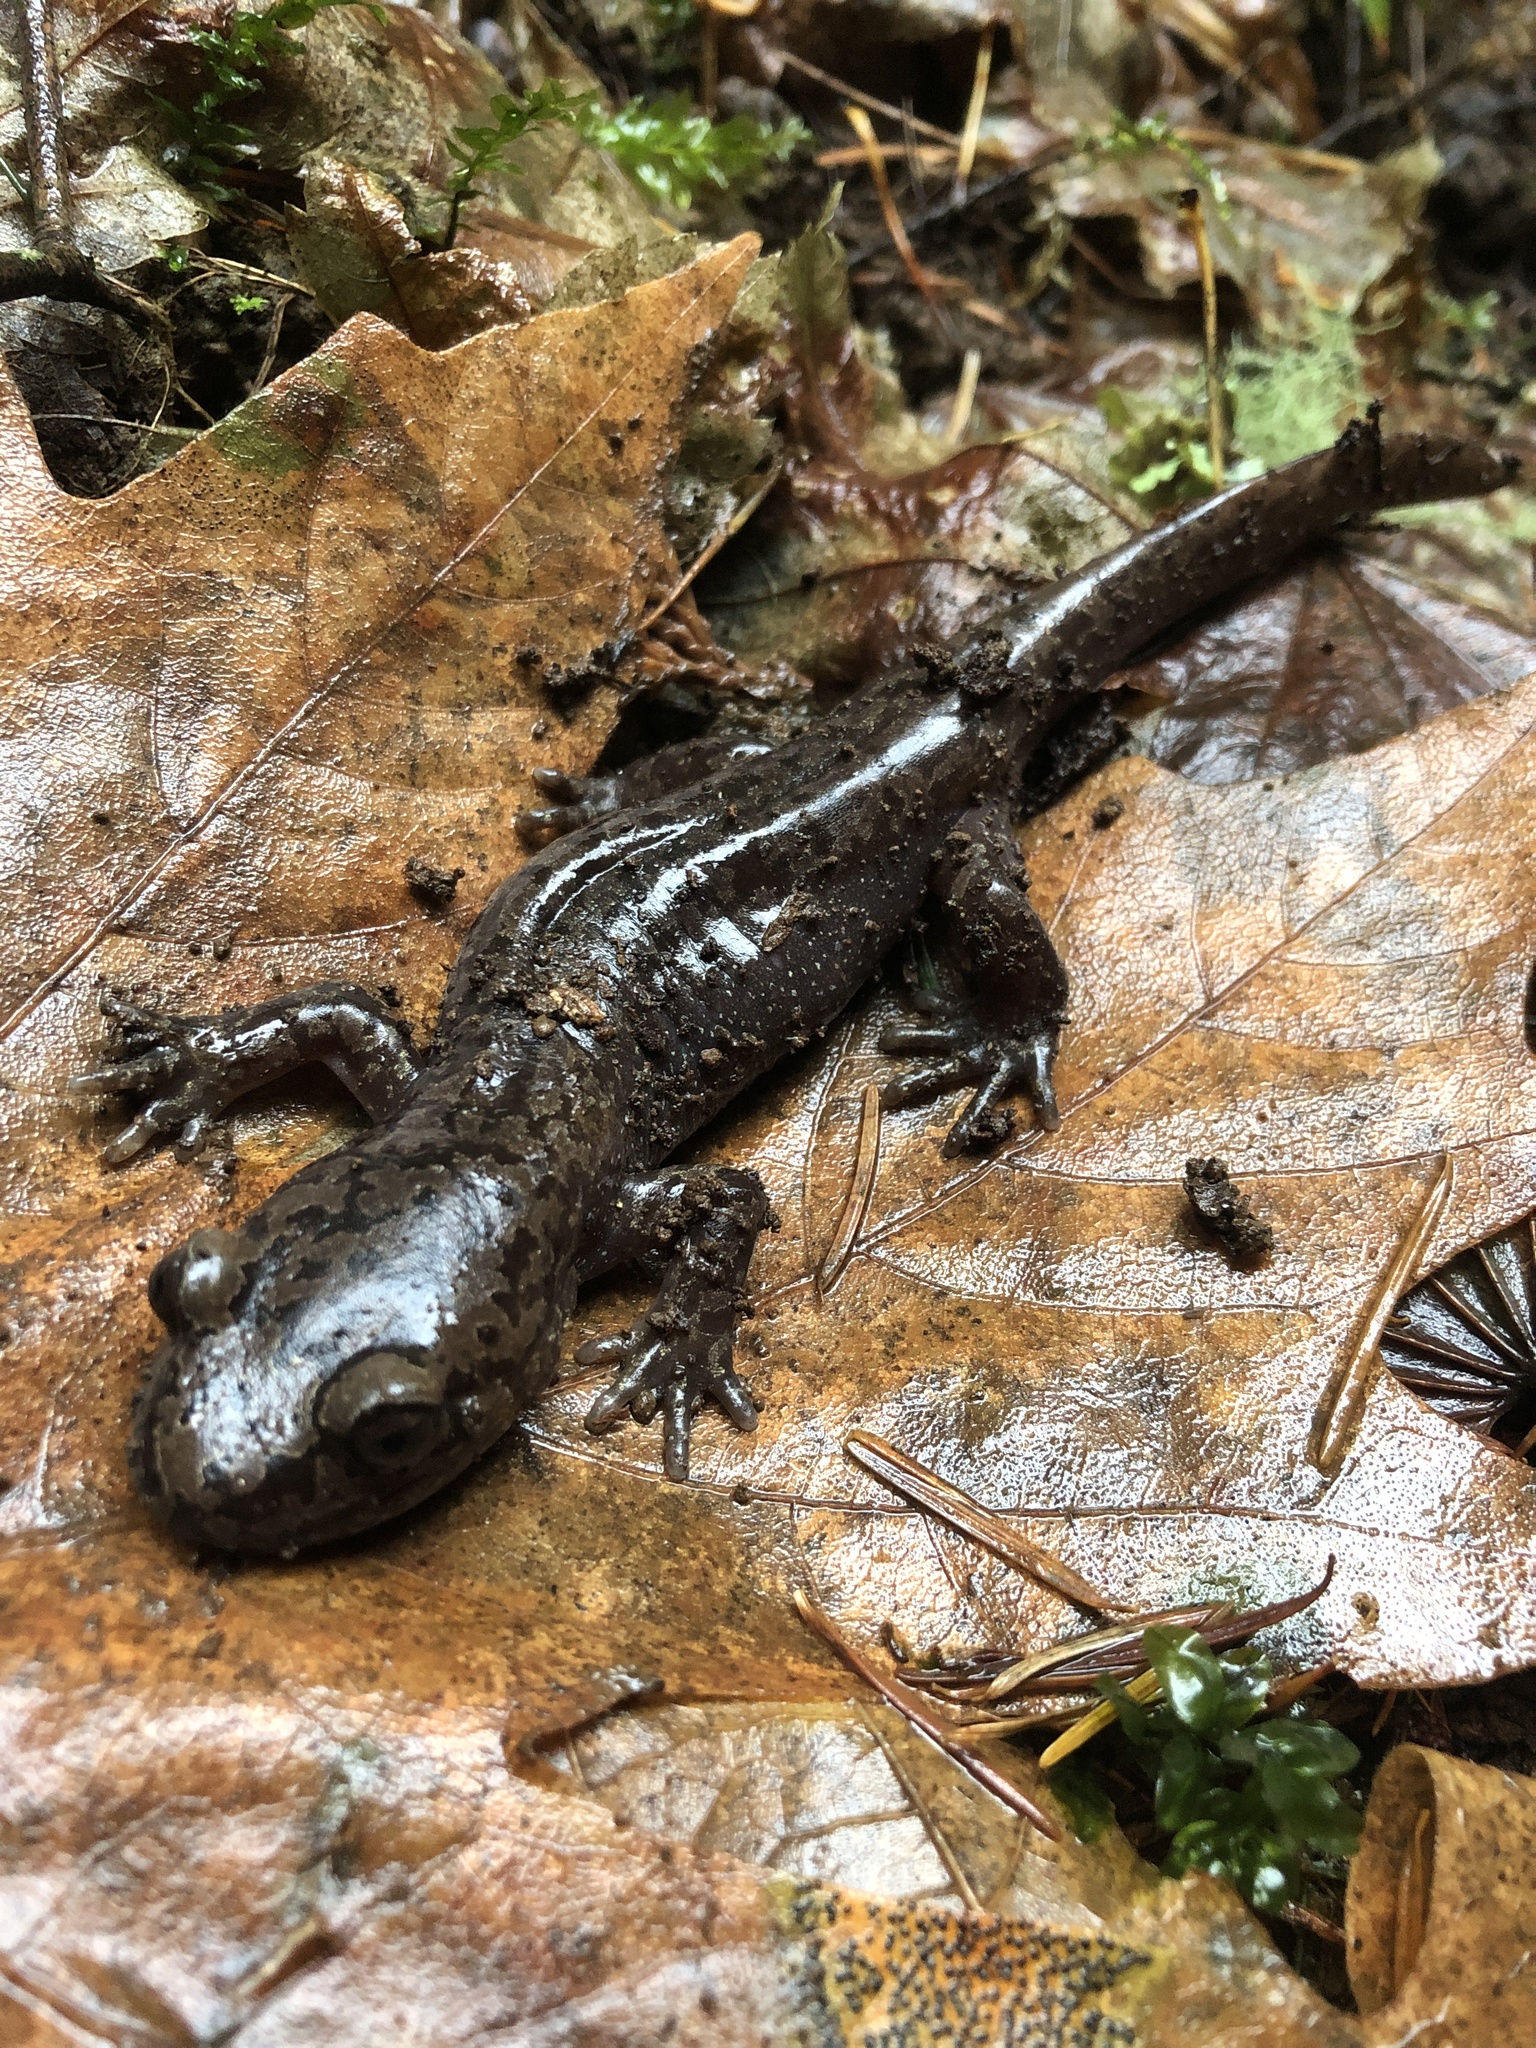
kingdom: Animalia
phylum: Chordata
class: Amphibia
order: Caudata
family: Ambystomatidae
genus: Dicamptodon
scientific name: Dicamptodon tenebrosus
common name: Coastal giant salamander
